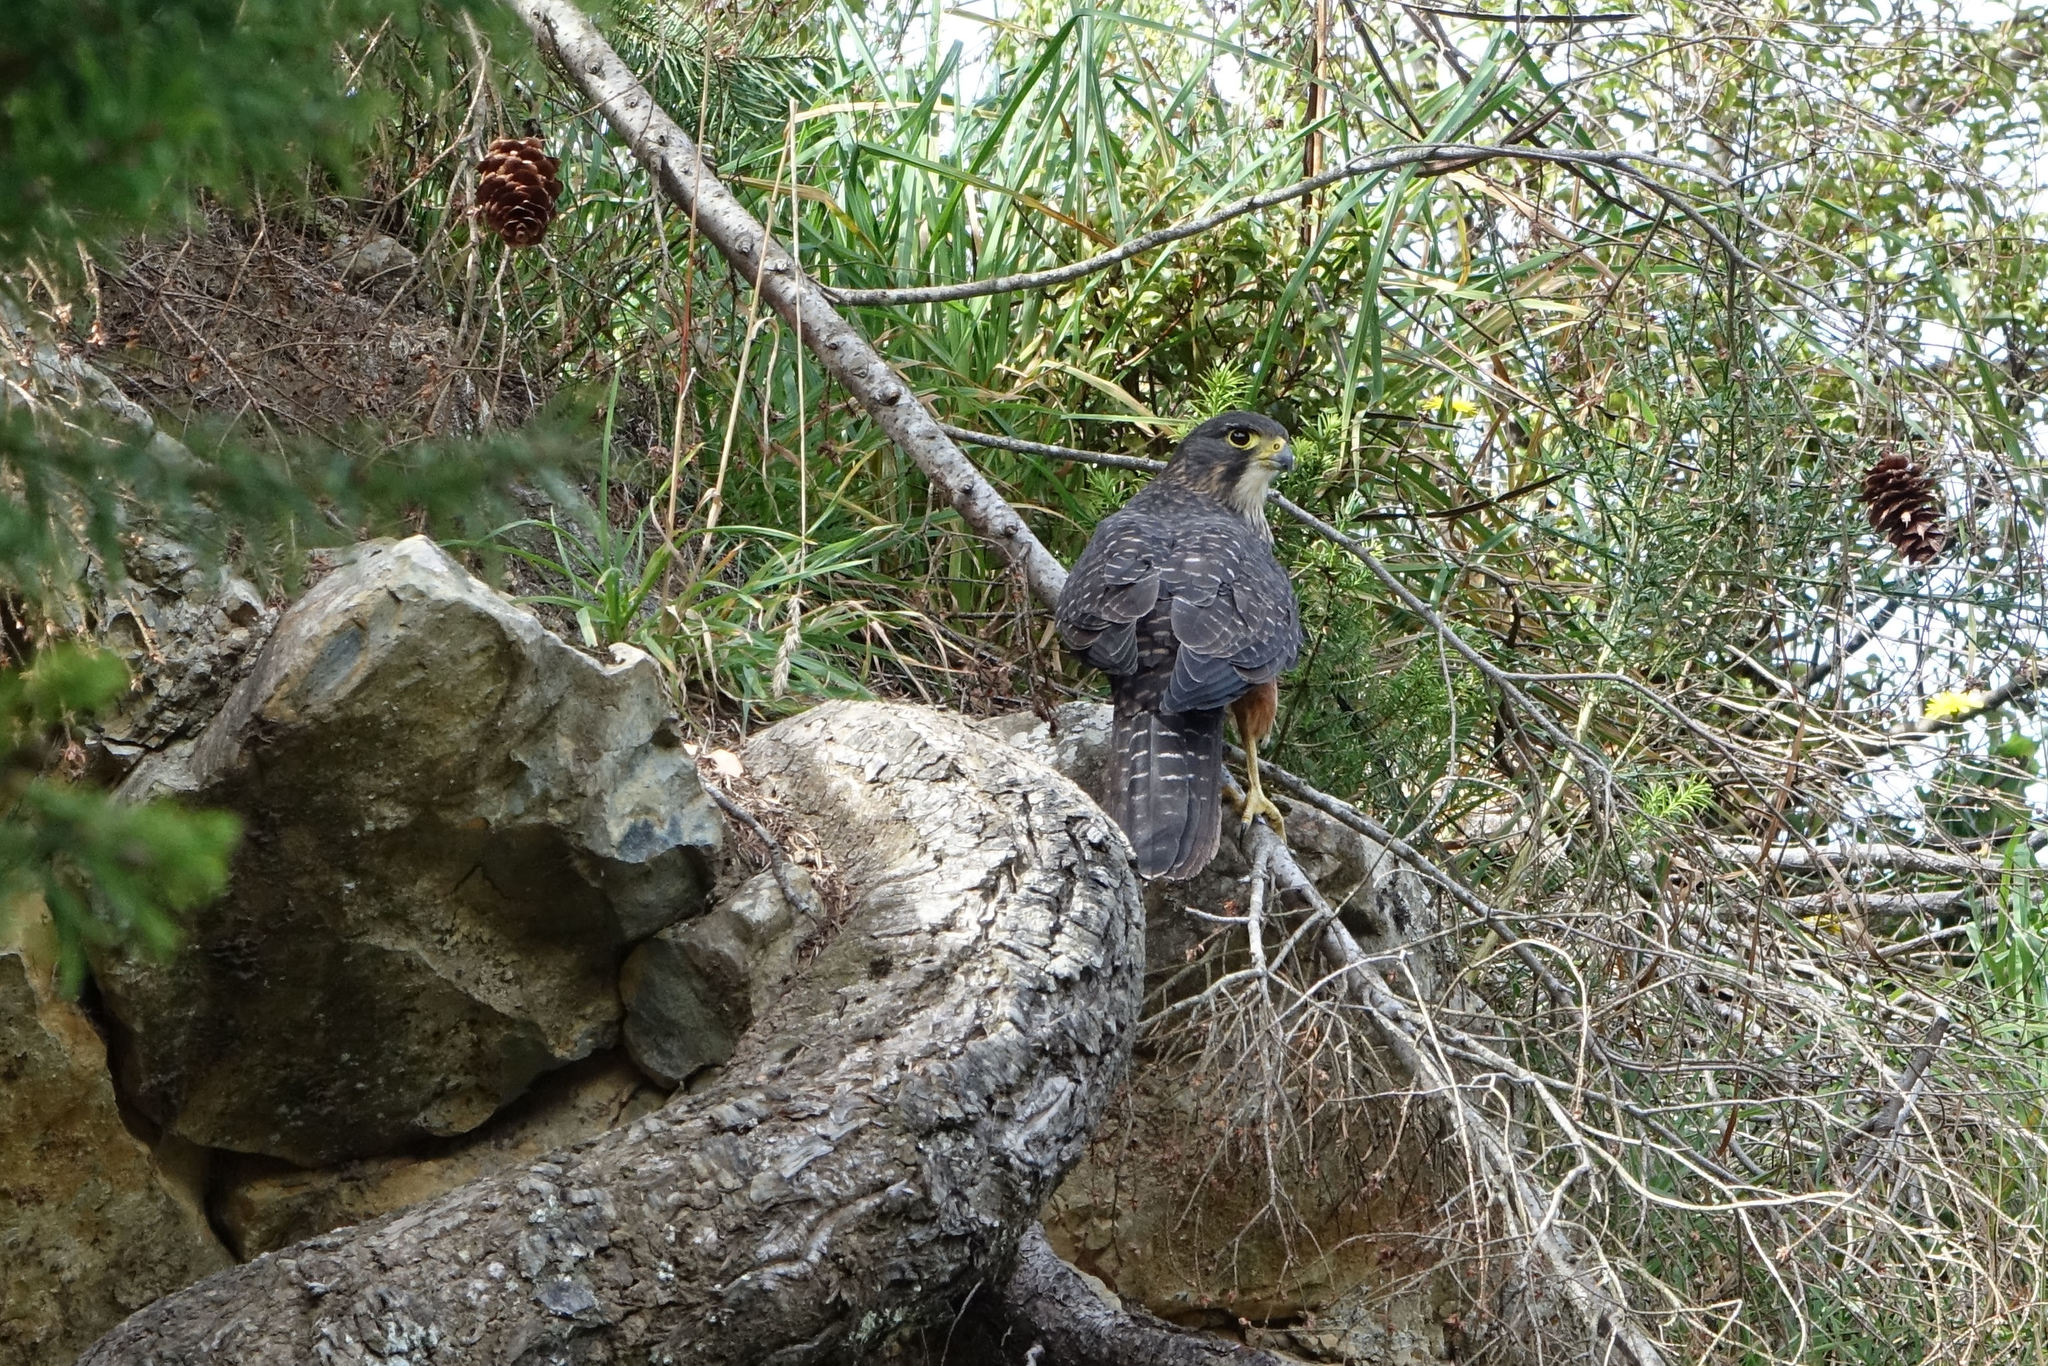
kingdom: Animalia
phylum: Chordata
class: Aves
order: Falconiformes
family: Falconidae
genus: Falco
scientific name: Falco novaeseelandiae
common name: New zealand falcon
